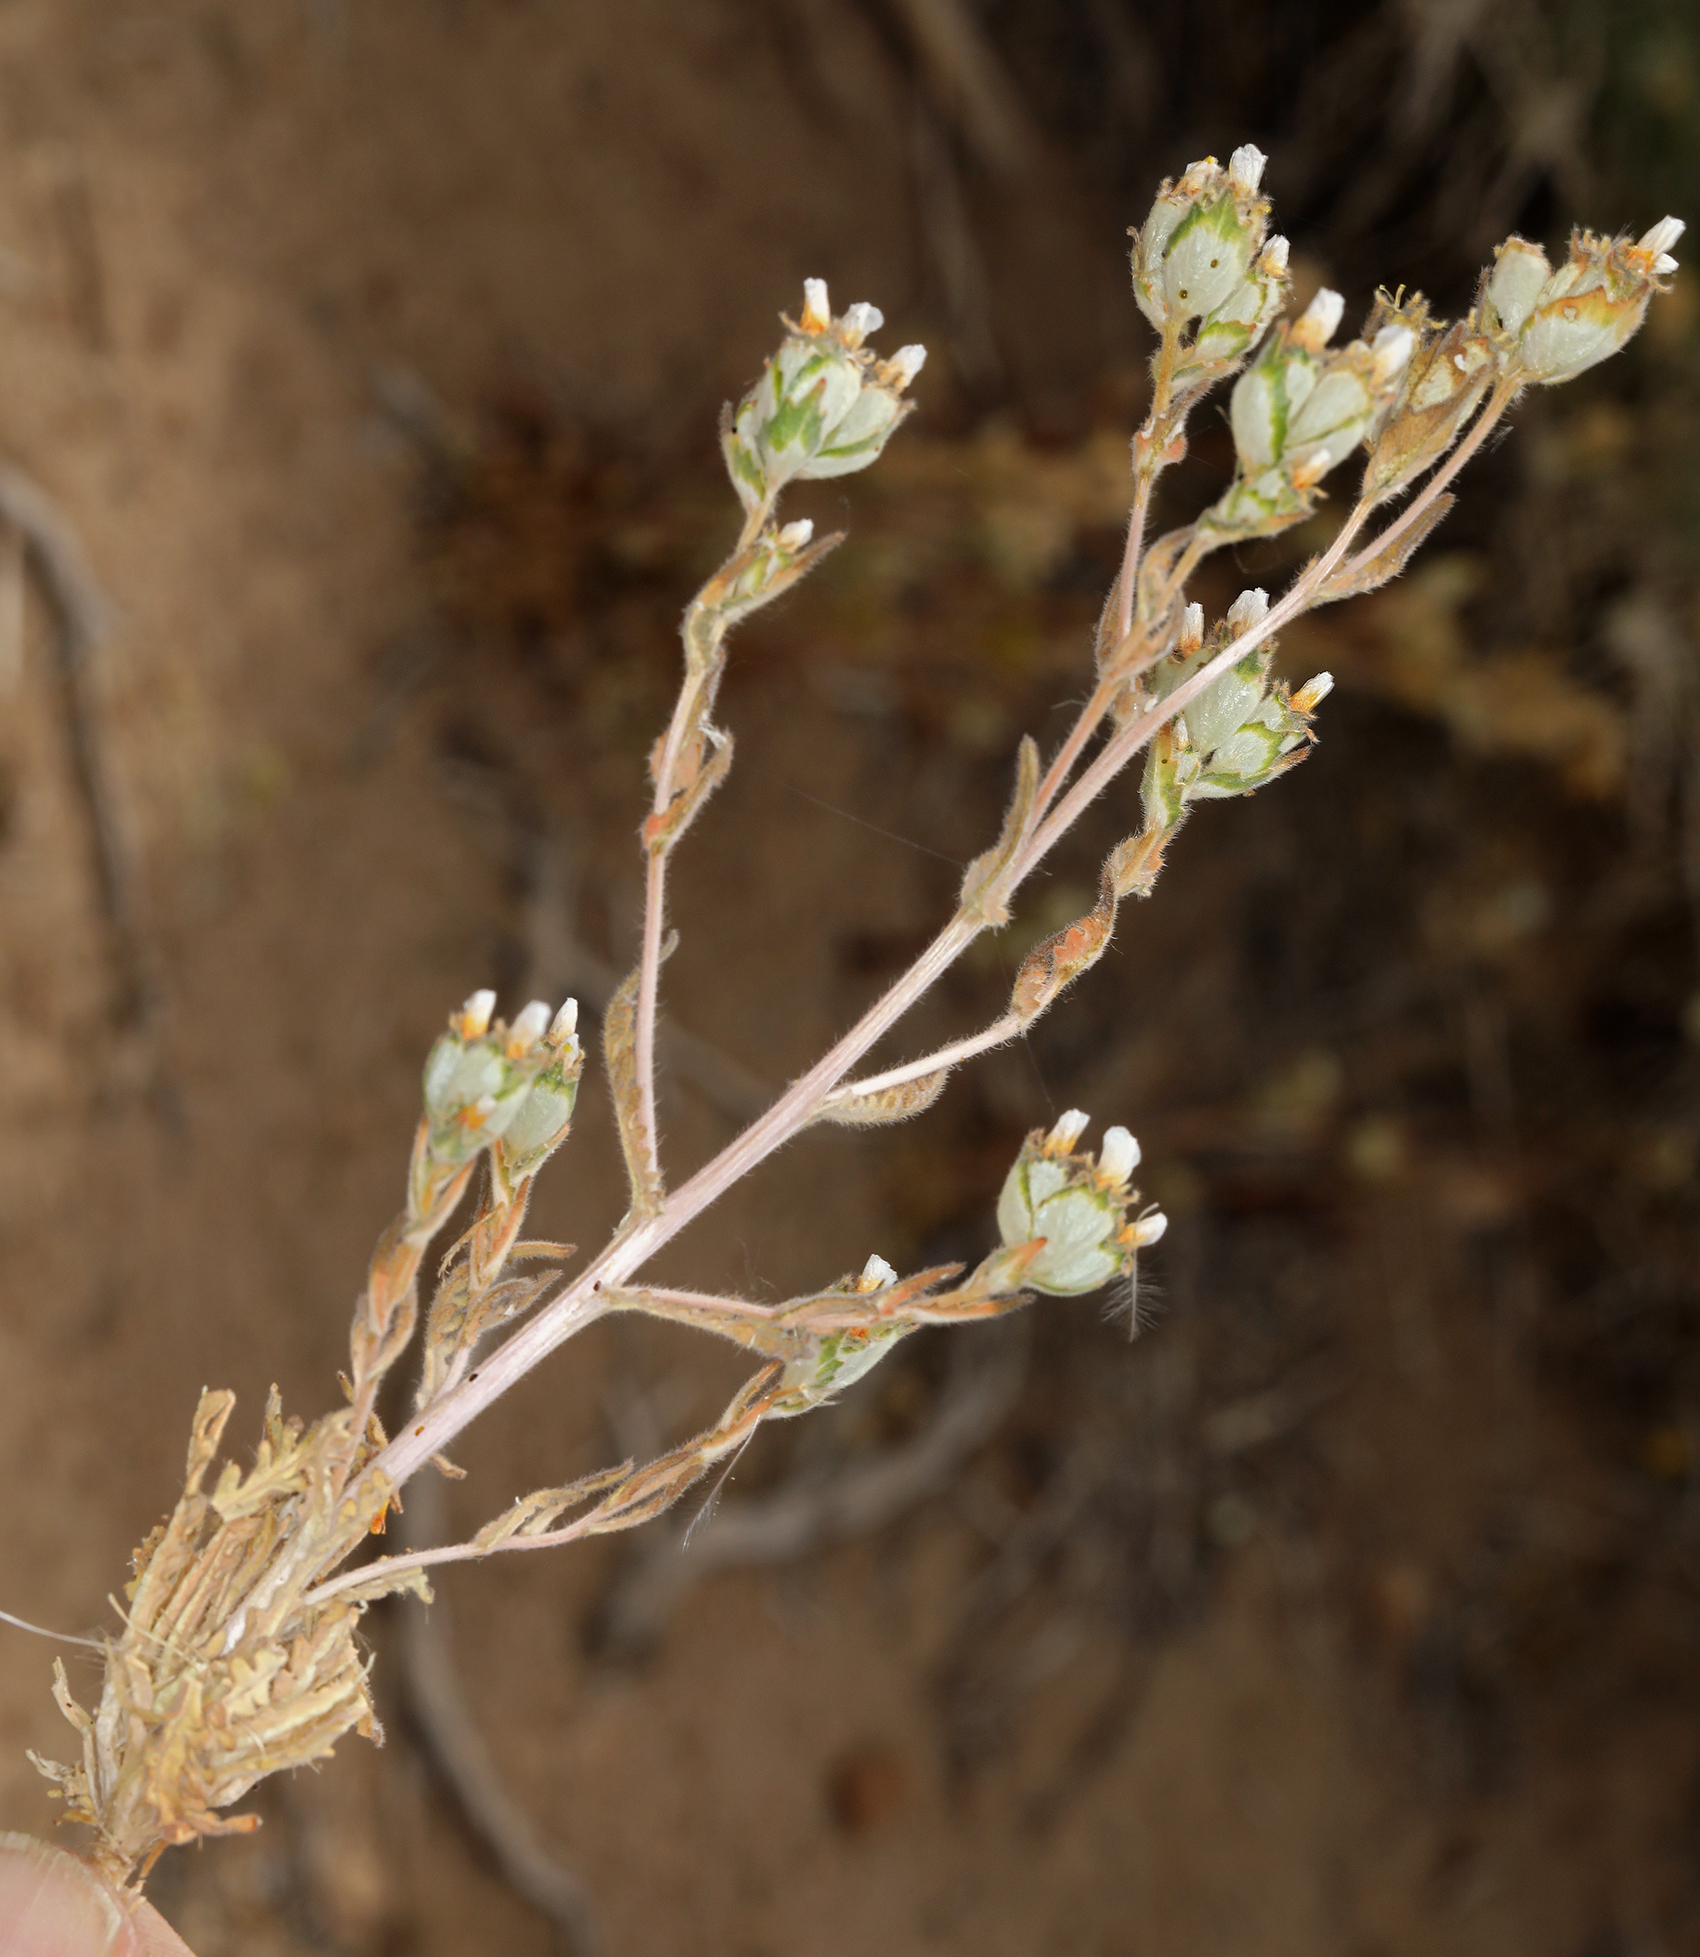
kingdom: Plantae
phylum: Tracheophyta
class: Magnoliopsida
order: Cornales
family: Loasaceae
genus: Mentzelia
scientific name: Mentzelia congesta
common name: Ventana blazingstar
